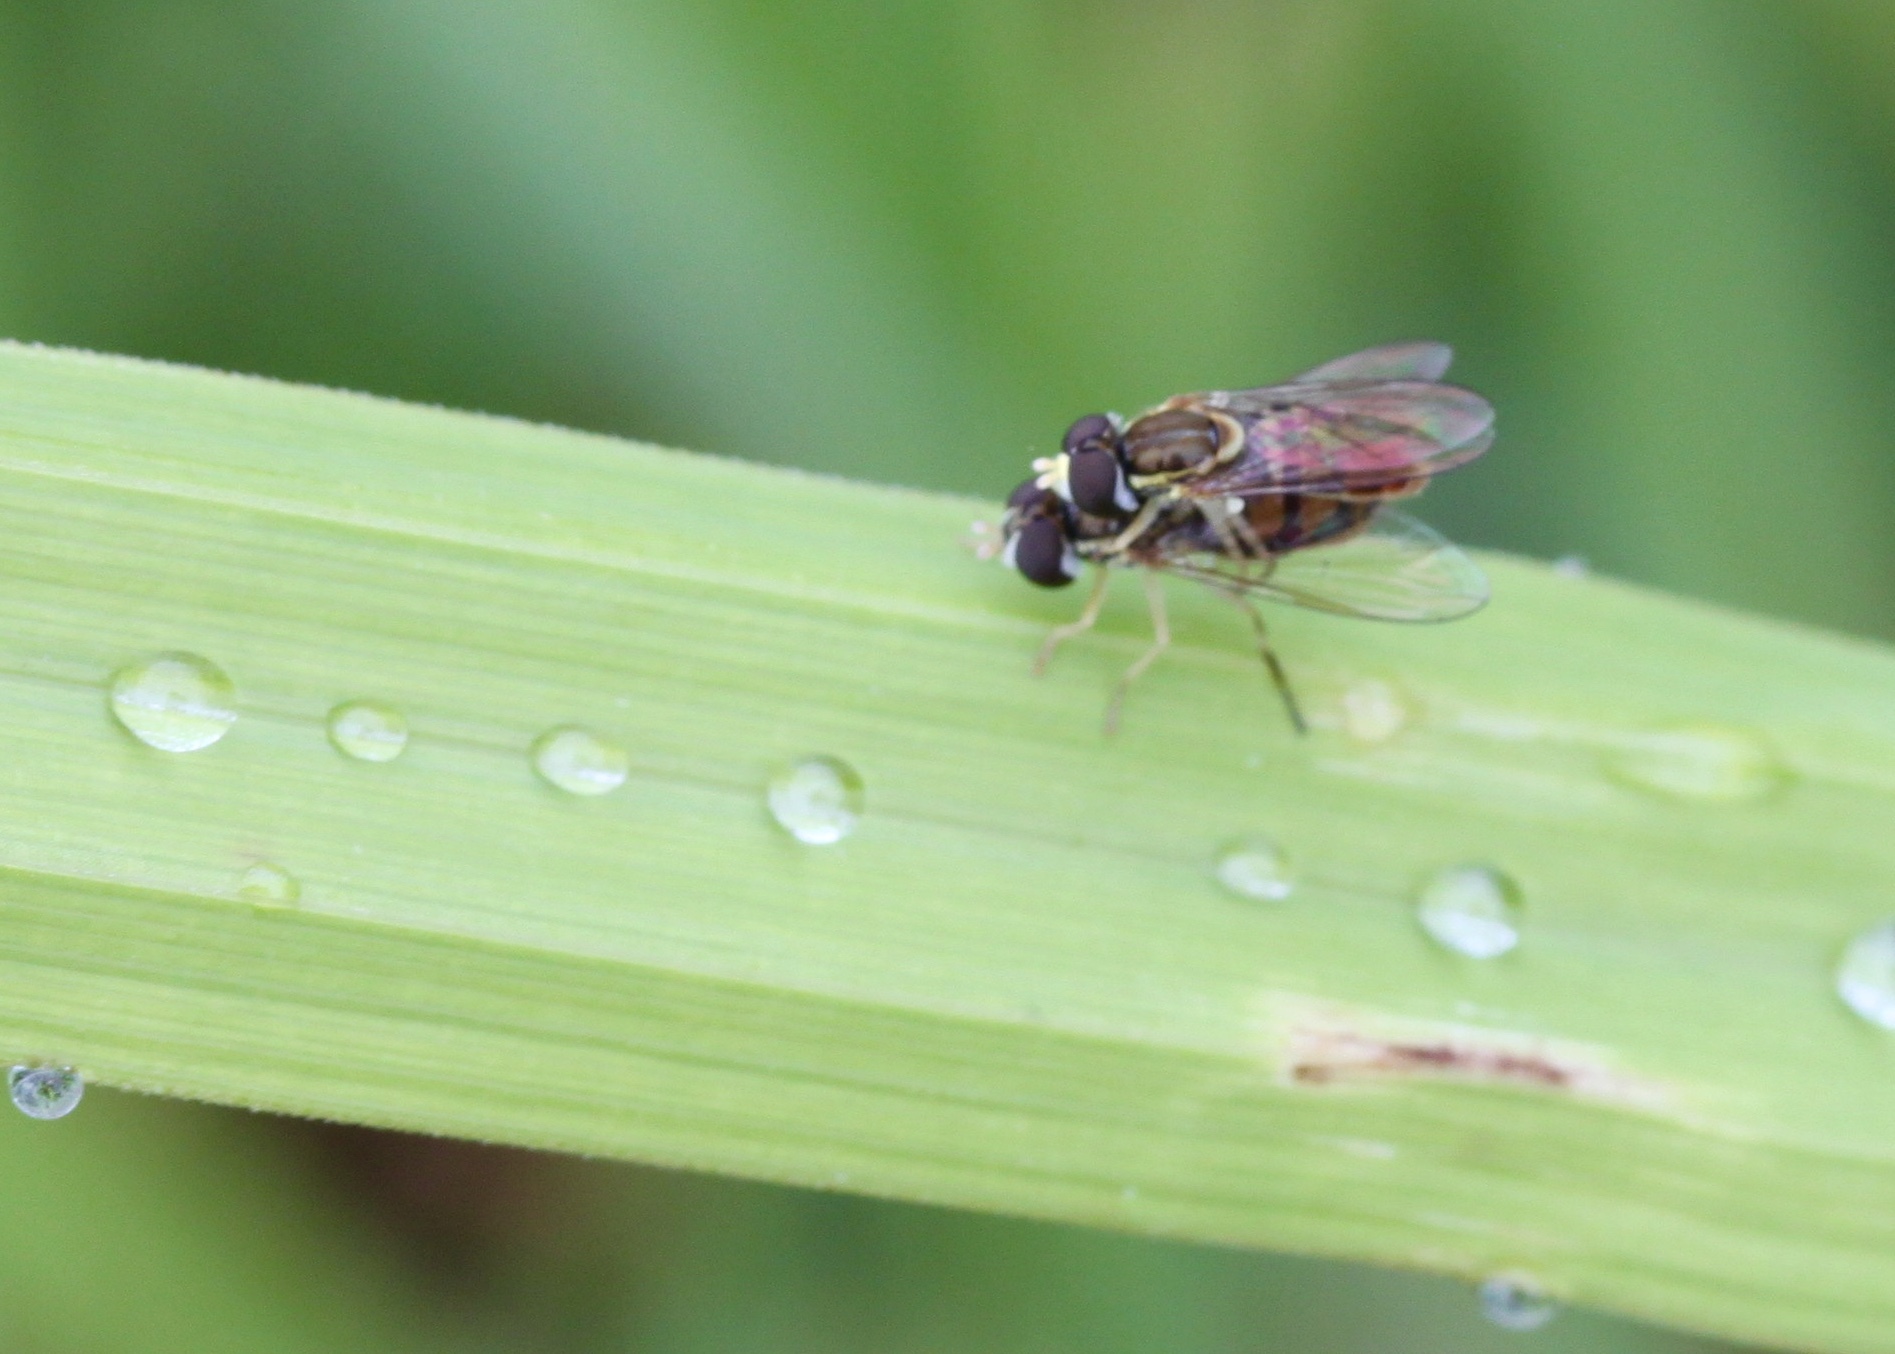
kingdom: Animalia
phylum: Arthropoda
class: Insecta
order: Diptera
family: Syrphidae
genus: Toxomerus
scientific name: Toxomerus marginatus
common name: Syrphid fly
